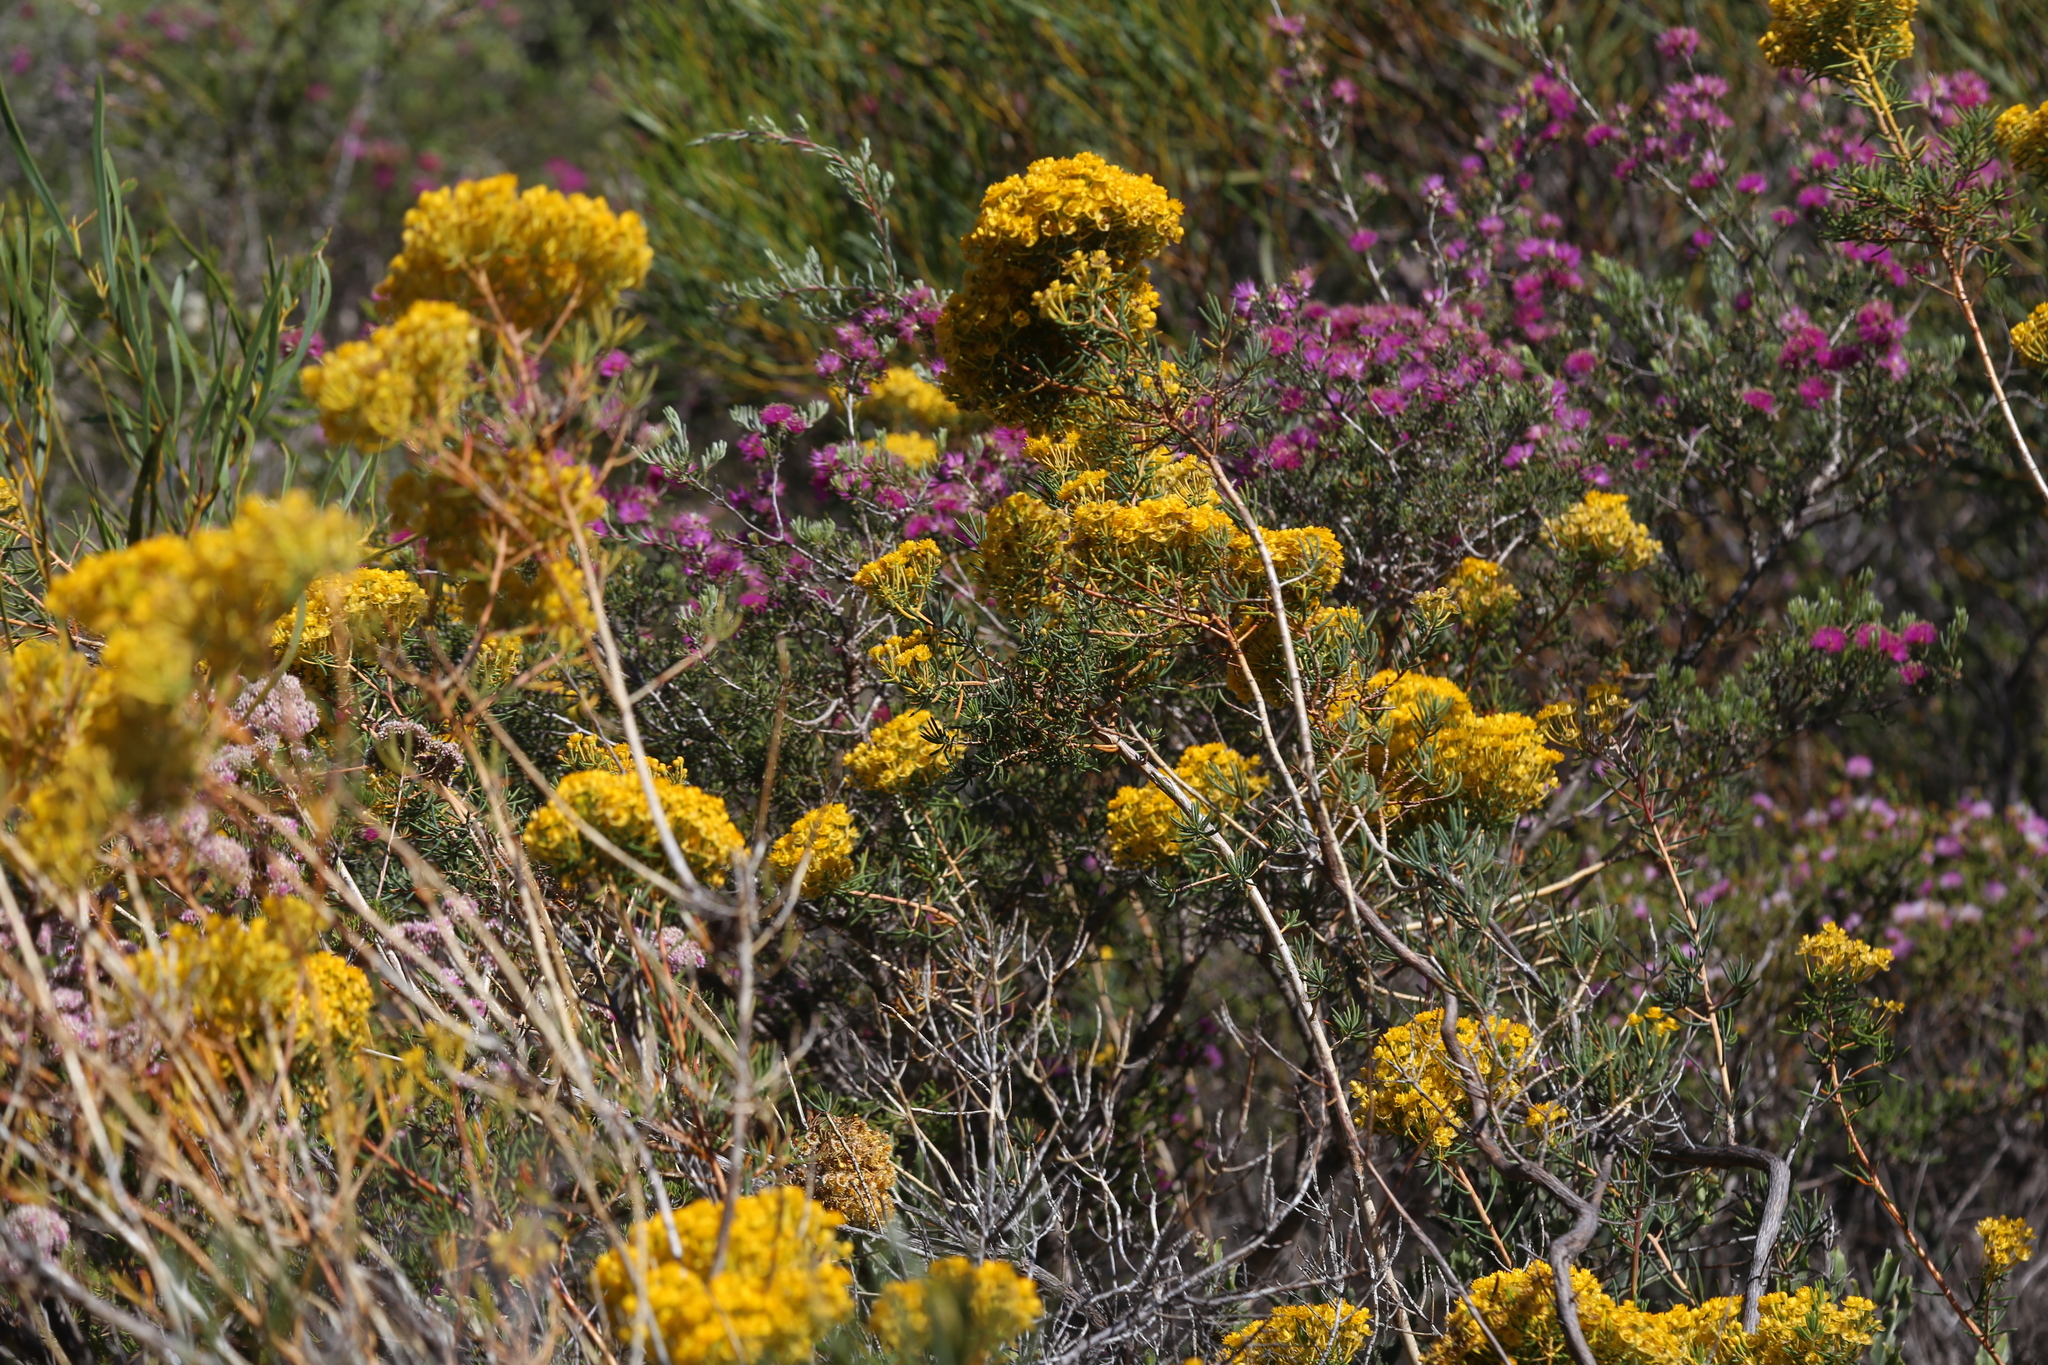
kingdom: Plantae
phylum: Tracheophyta
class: Magnoliopsida
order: Myrtales
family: Myrtaceae
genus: Verticordia
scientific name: Verticordia aurea
